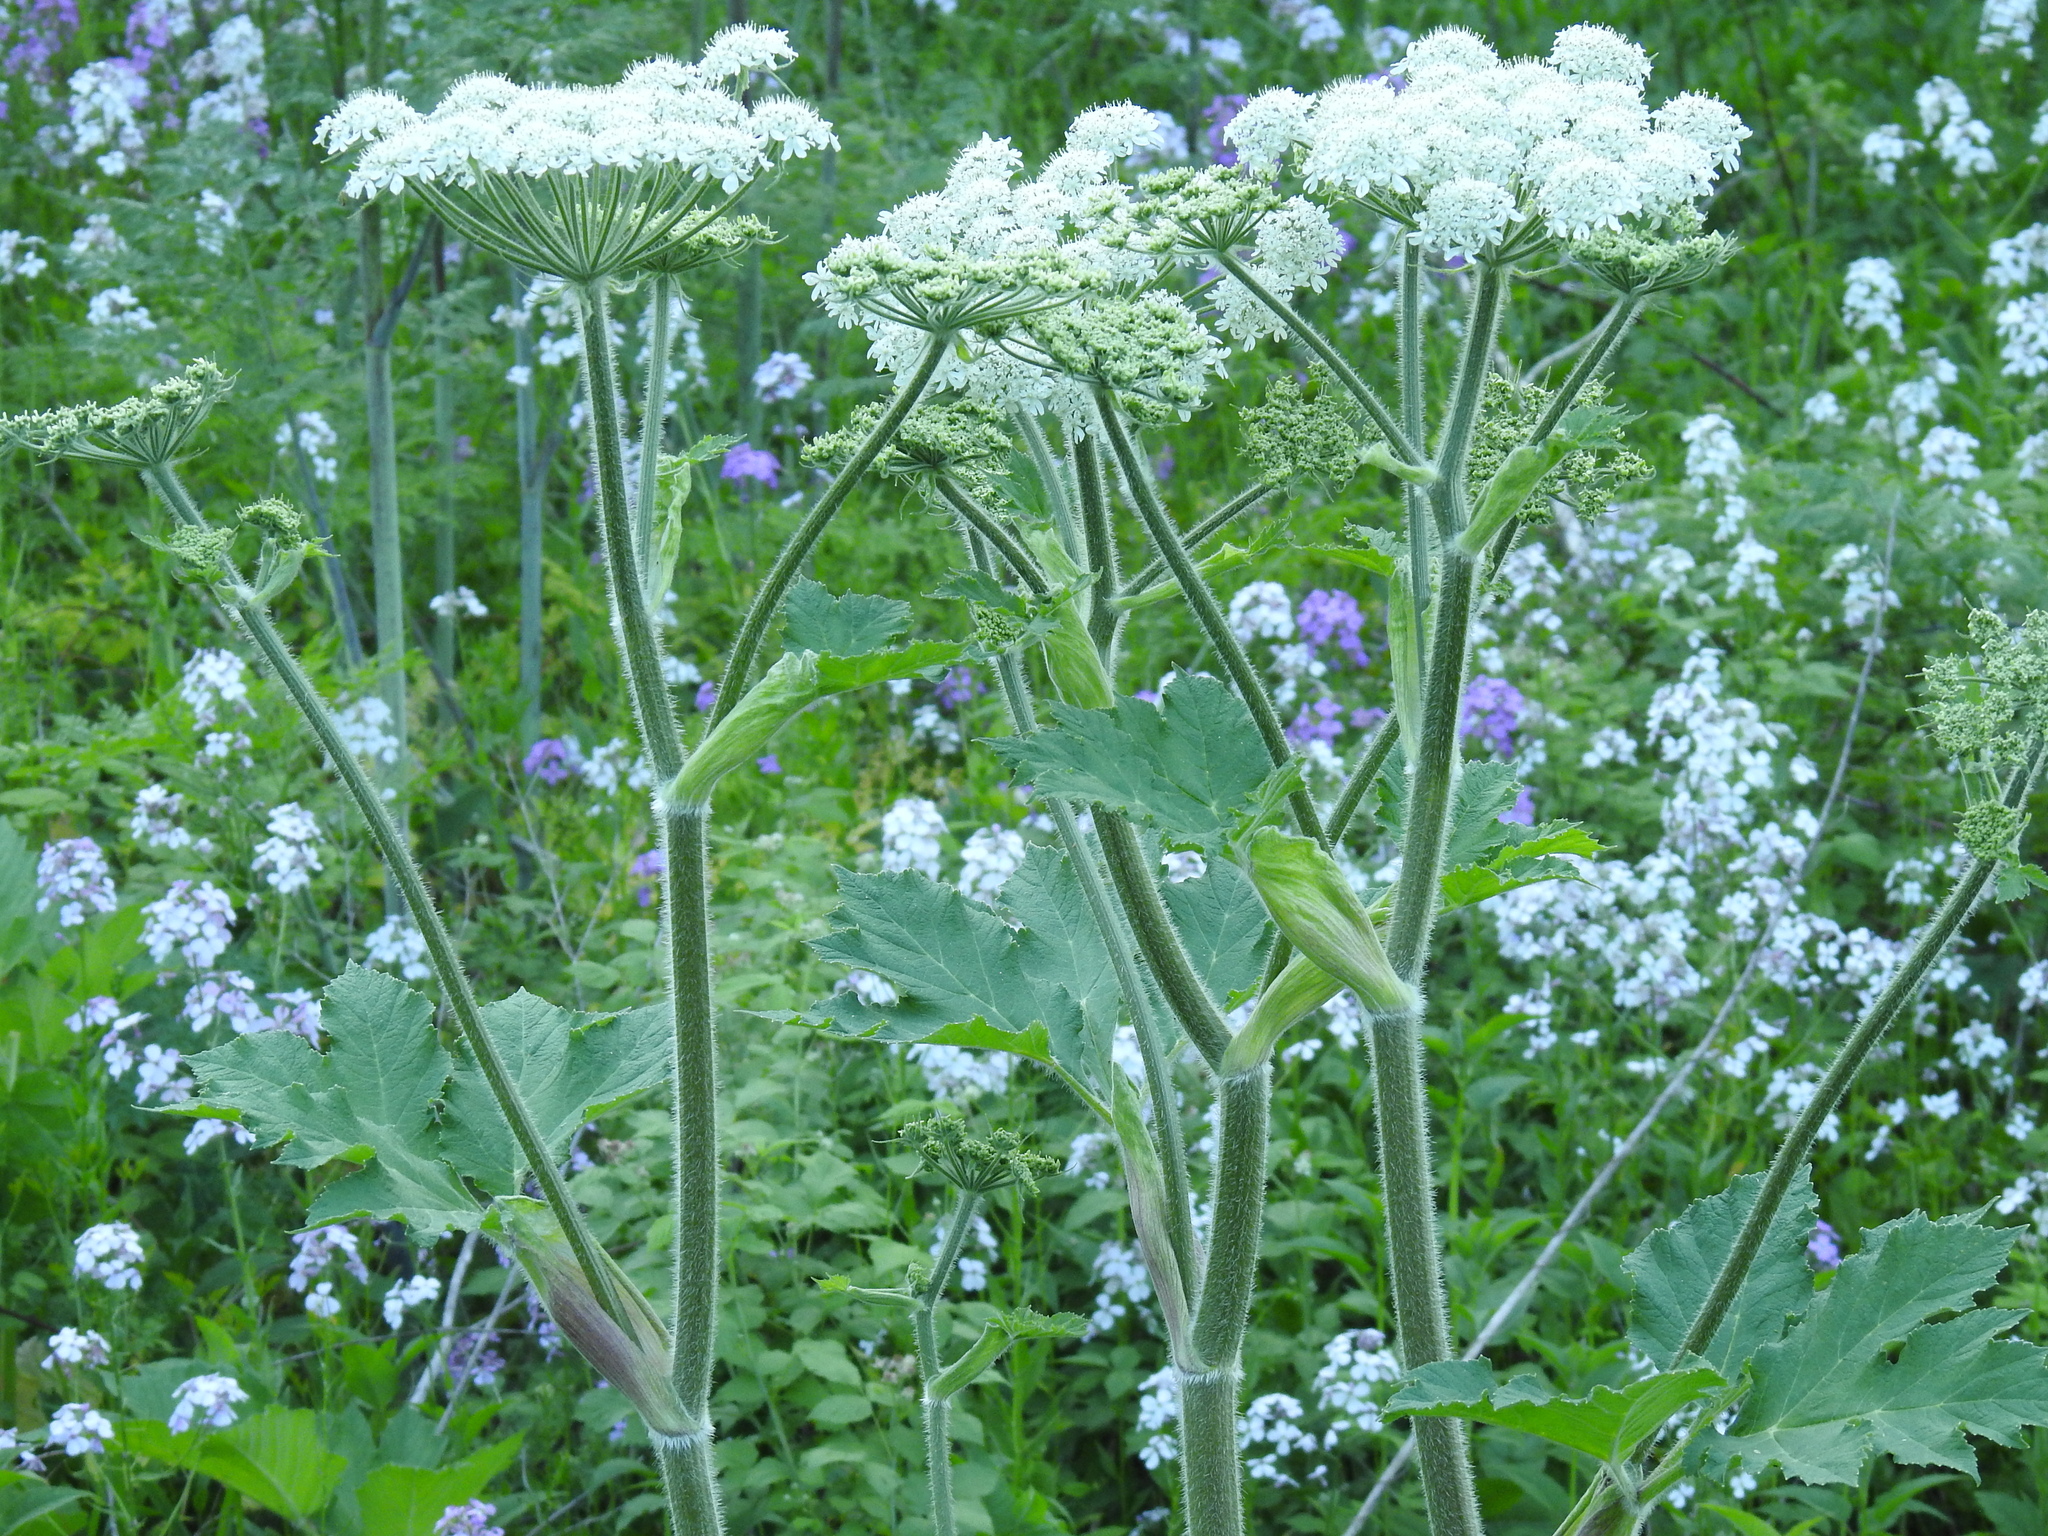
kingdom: Plantae
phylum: Tracheophyta
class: Magnoliopsida
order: Apiales
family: Apiaceae
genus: Heracleum
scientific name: Heracleum maximum
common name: American cow parsnip
